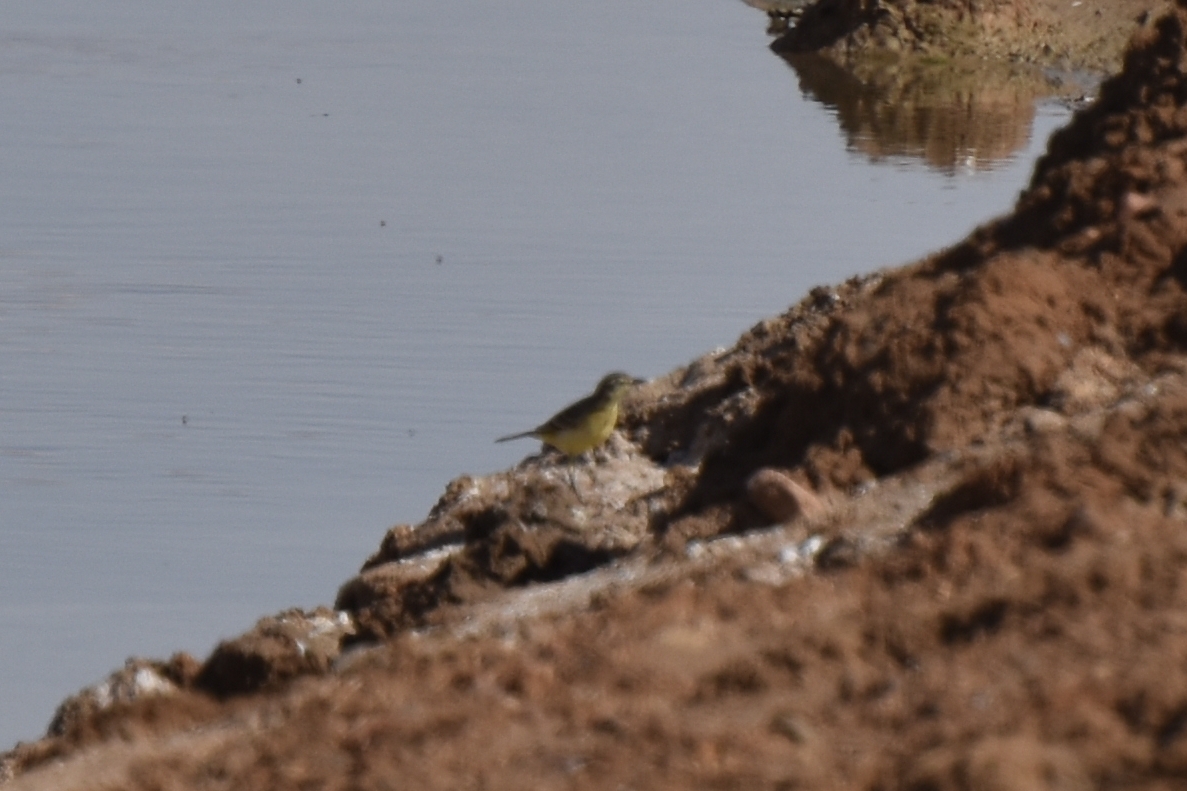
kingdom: Animalia
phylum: Chordata
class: Aves
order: Passeriformes
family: Motacillidae
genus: Motacilla
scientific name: Motacilla flava
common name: Western yellow wagtail
